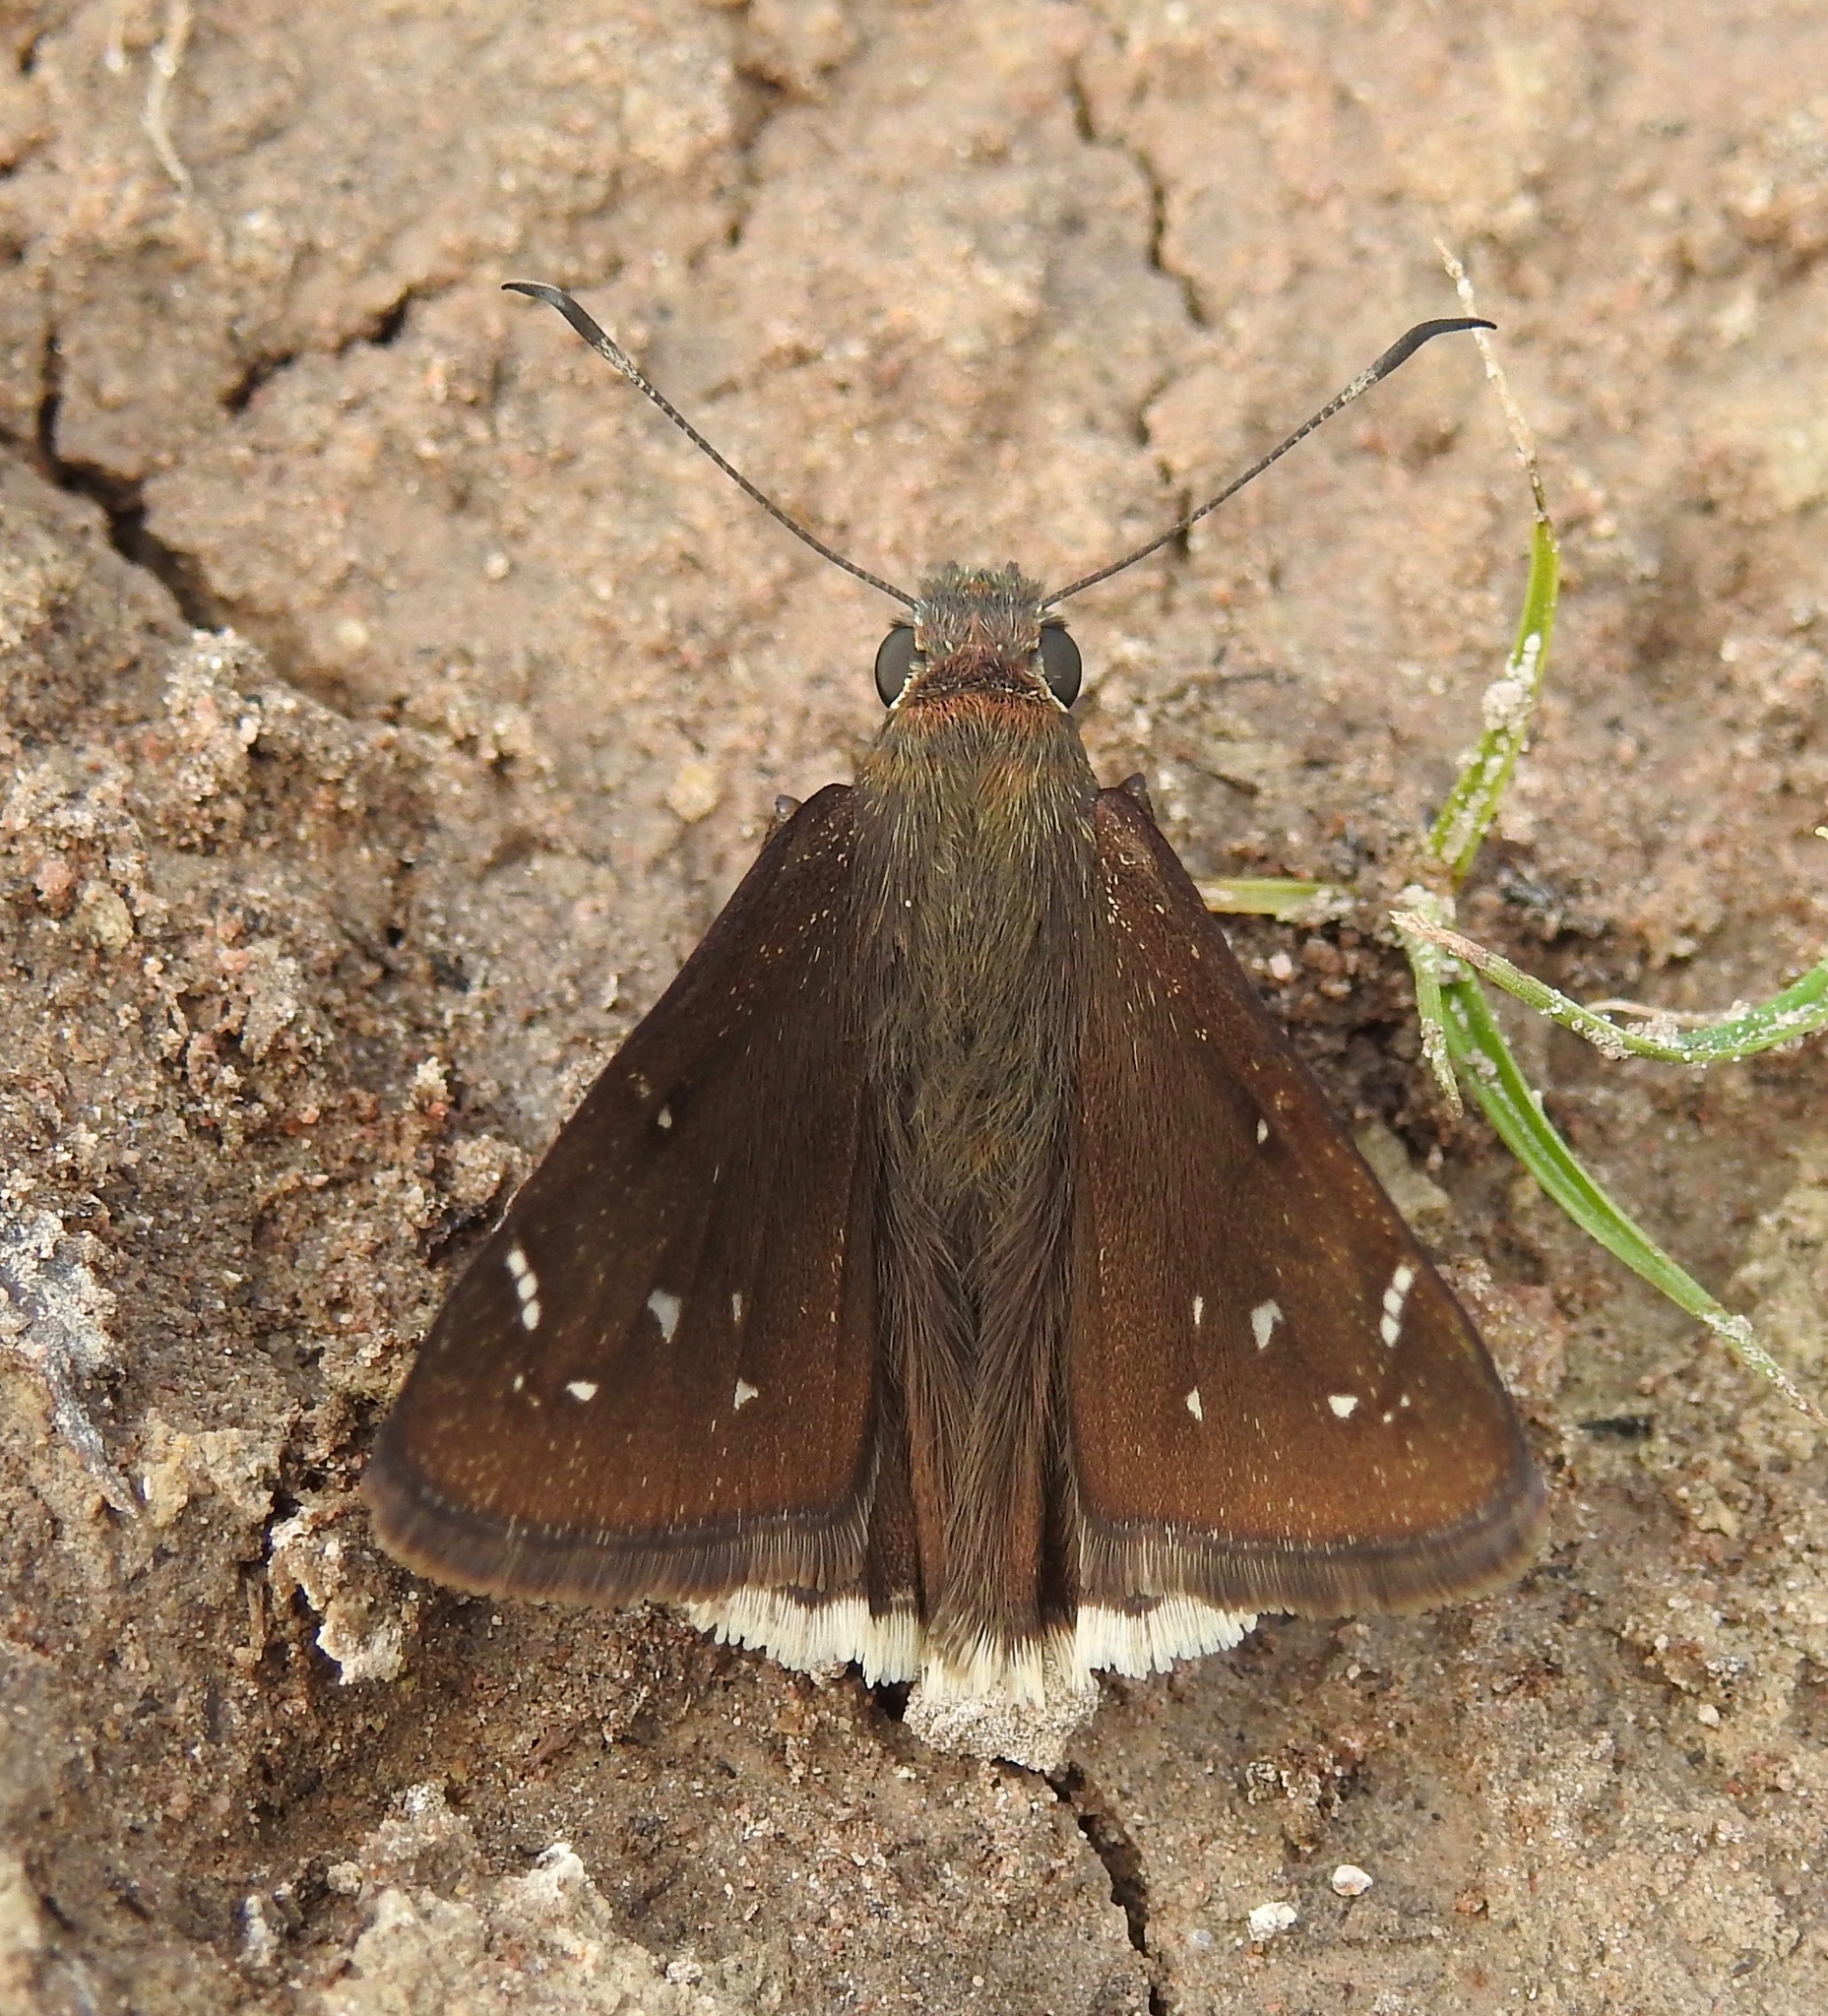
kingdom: Animalia
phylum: Arthropoda
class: Insecta
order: Lepidoptera
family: Hesperiidae
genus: Thorybes
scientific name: Thorybes drusius
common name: Drusius cloudywing
